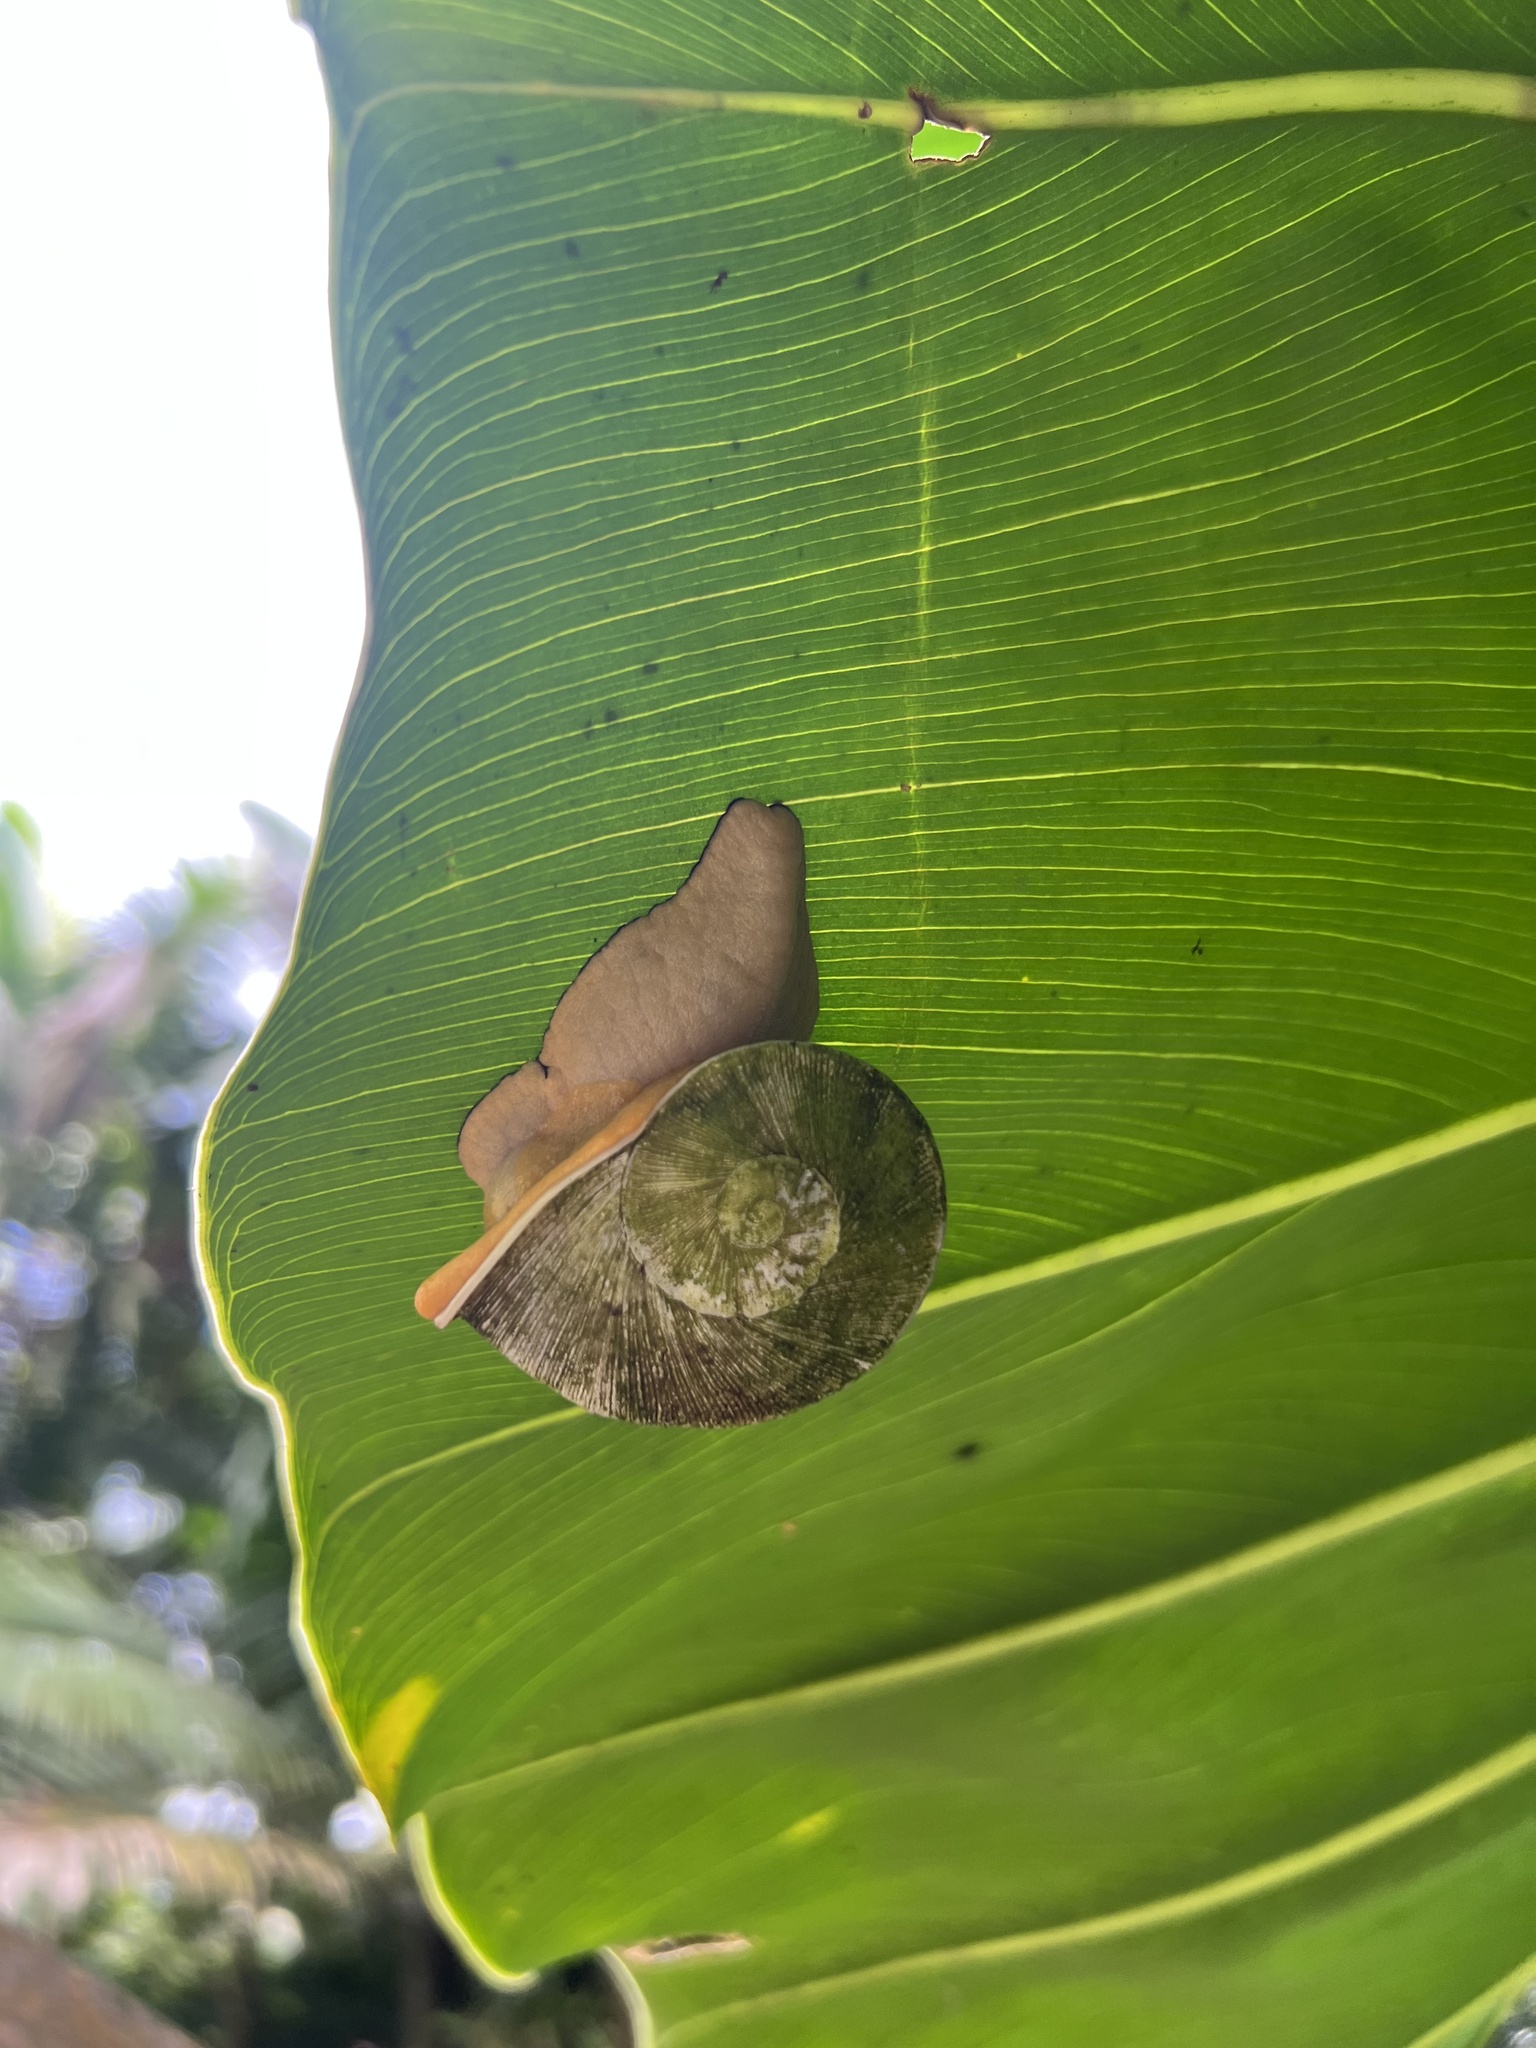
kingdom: Animalia
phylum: Mollusca
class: Gastropoda
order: Stylommatophora
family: Sagdidae
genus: Parthena
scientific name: Parthena acutangula
